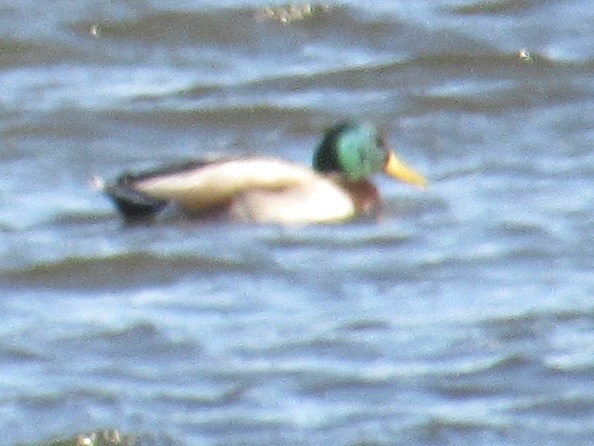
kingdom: Animalia
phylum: Chordata
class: Aves
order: Anseriformes
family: Anatidae
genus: Anas
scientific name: Anas platyrhynchos
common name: Mallard
